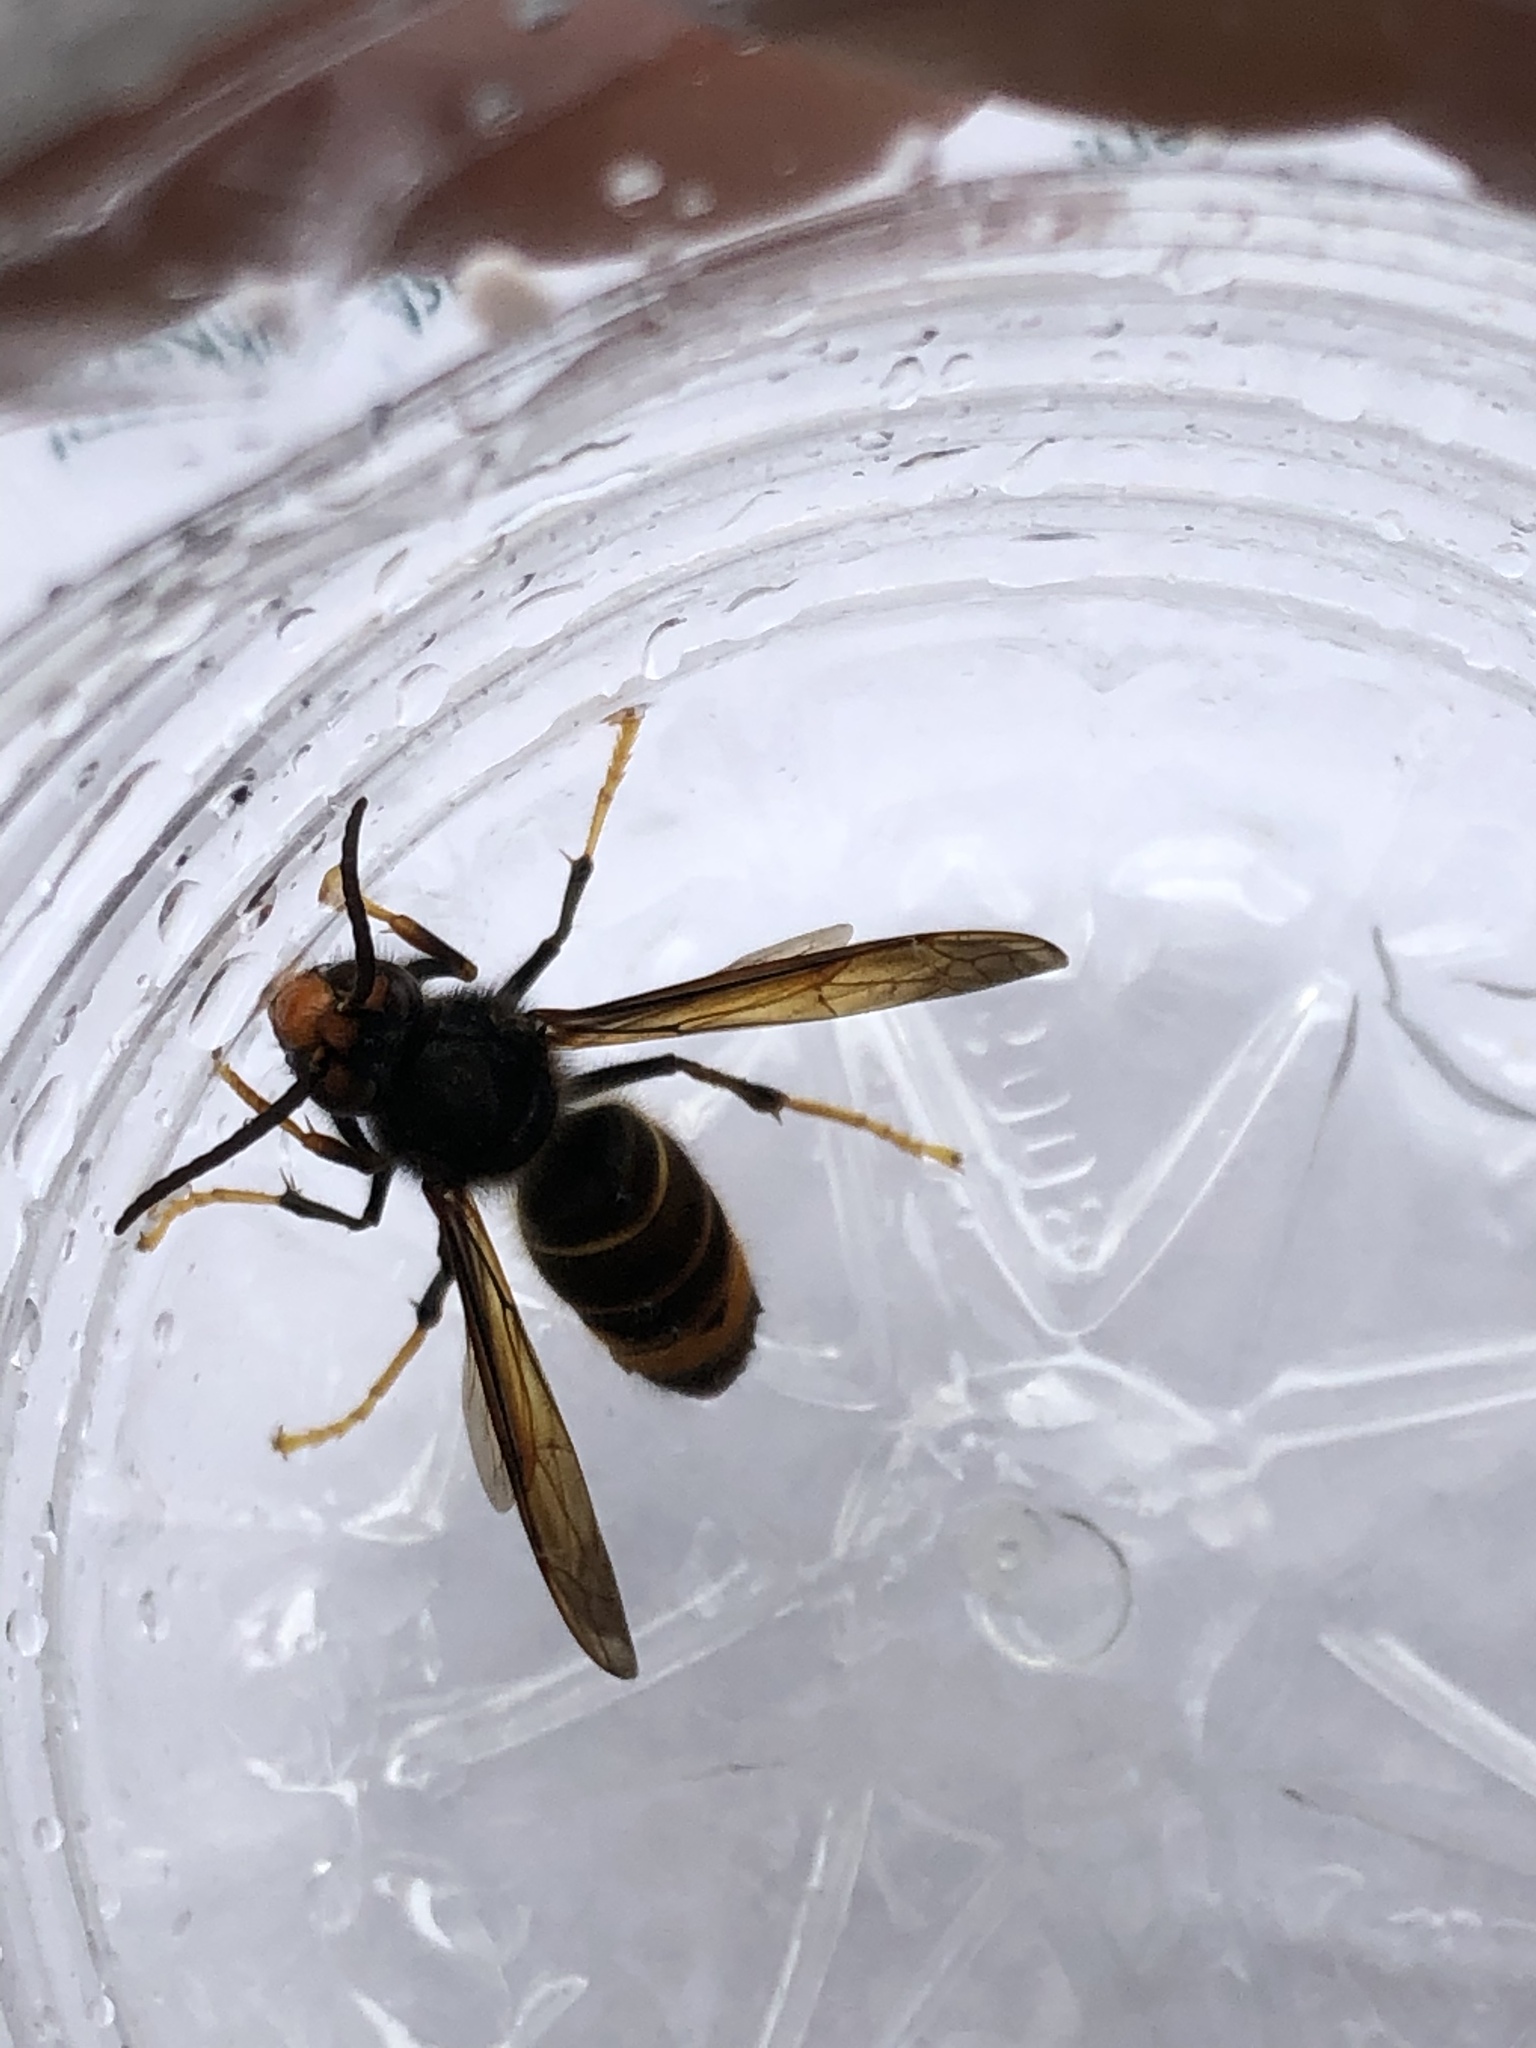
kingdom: Animalia
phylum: Arthropoda
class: Insecta
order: Hymenoptera
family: Vespidae
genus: Vespa
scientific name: Vespa velutina
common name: Asian hornet
